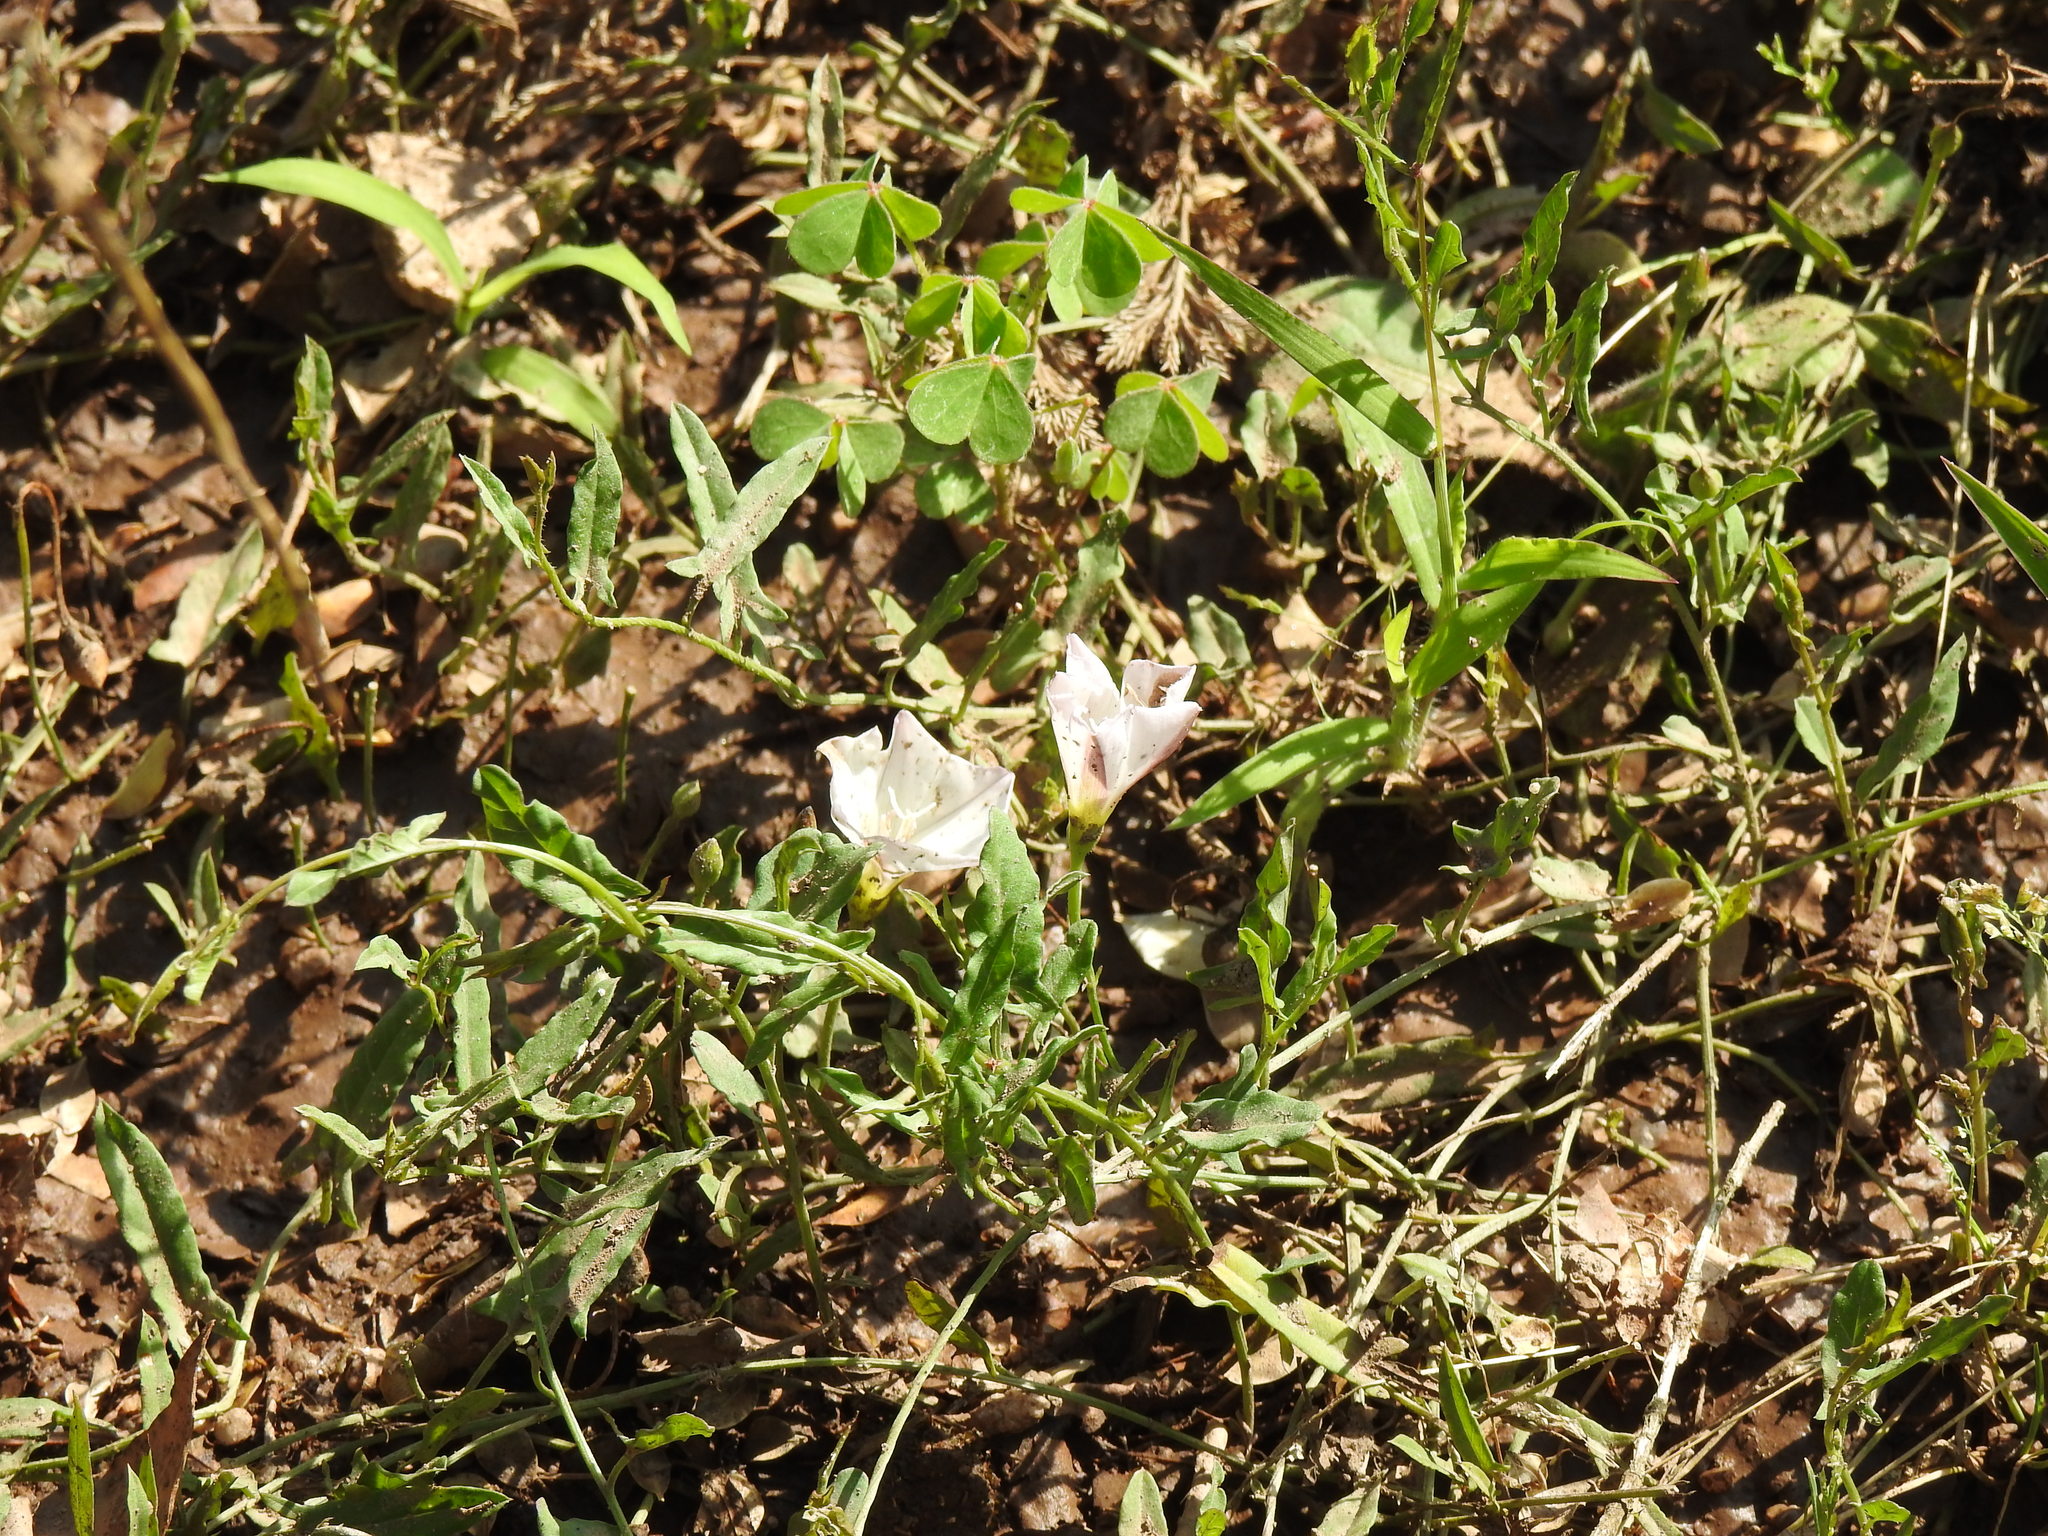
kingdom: Plantae
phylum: Tracheophyta
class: Magnoliopsida
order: Solanales
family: Convolvulaceae
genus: Convolvulus
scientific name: Convolvulus arvensis
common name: Field bindweed
